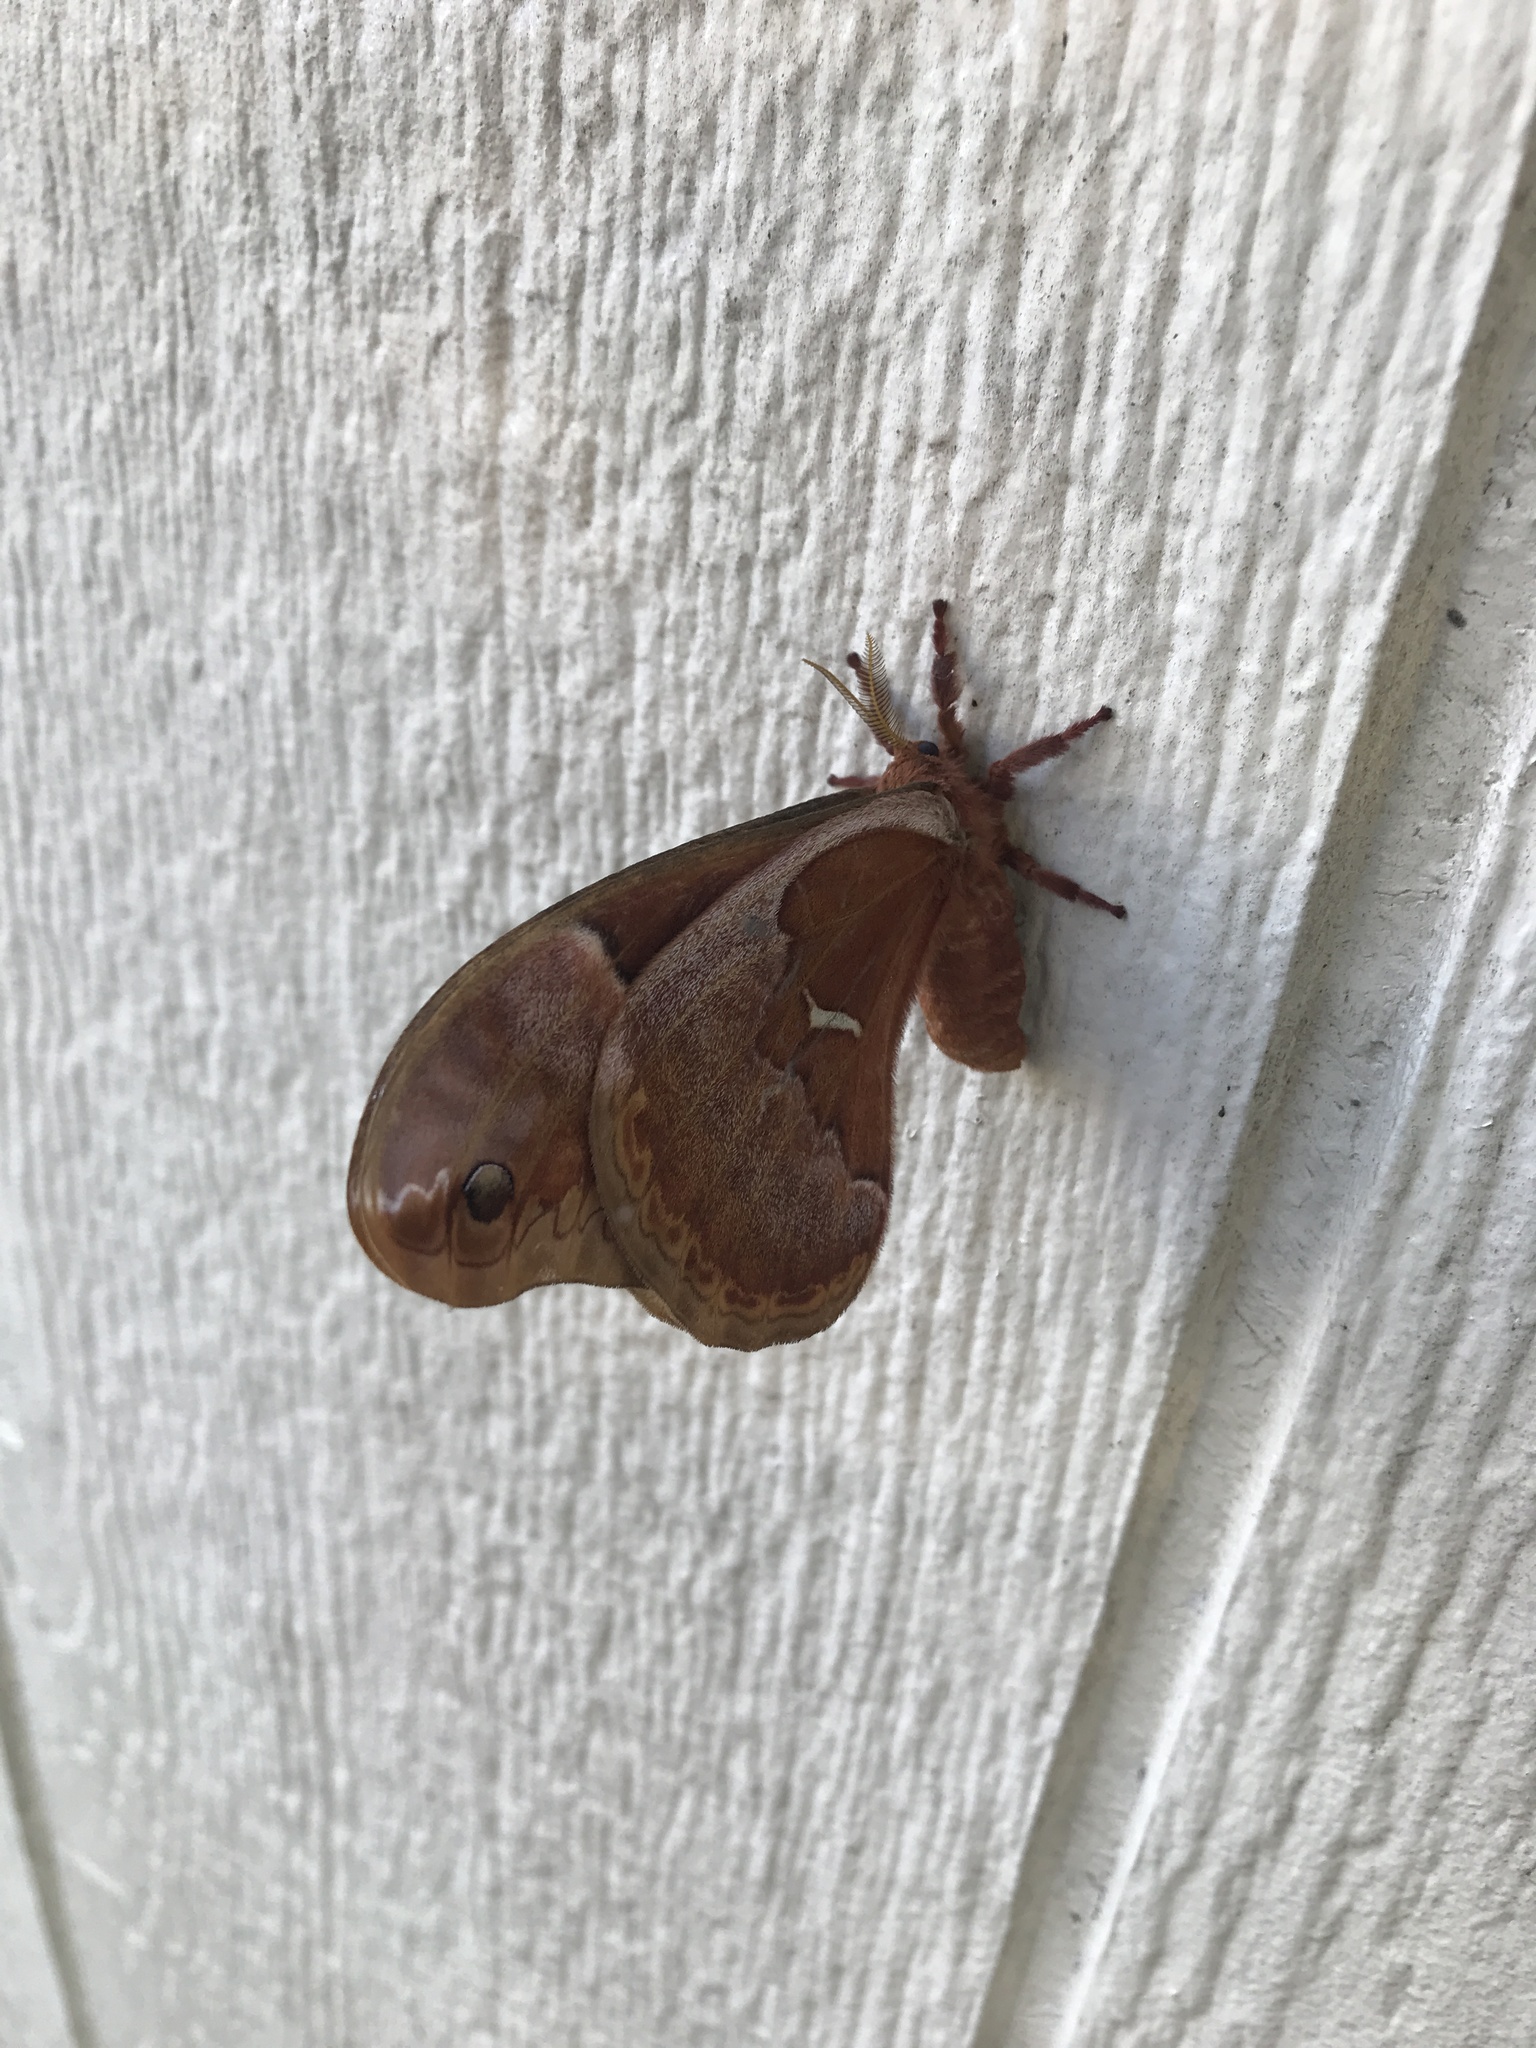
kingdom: Animalia
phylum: Arthropoda
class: Insecta
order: Lepidoptera
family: Saturniidae
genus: Callosamia
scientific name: Callosamia promethea
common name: Promethea silkmoth
